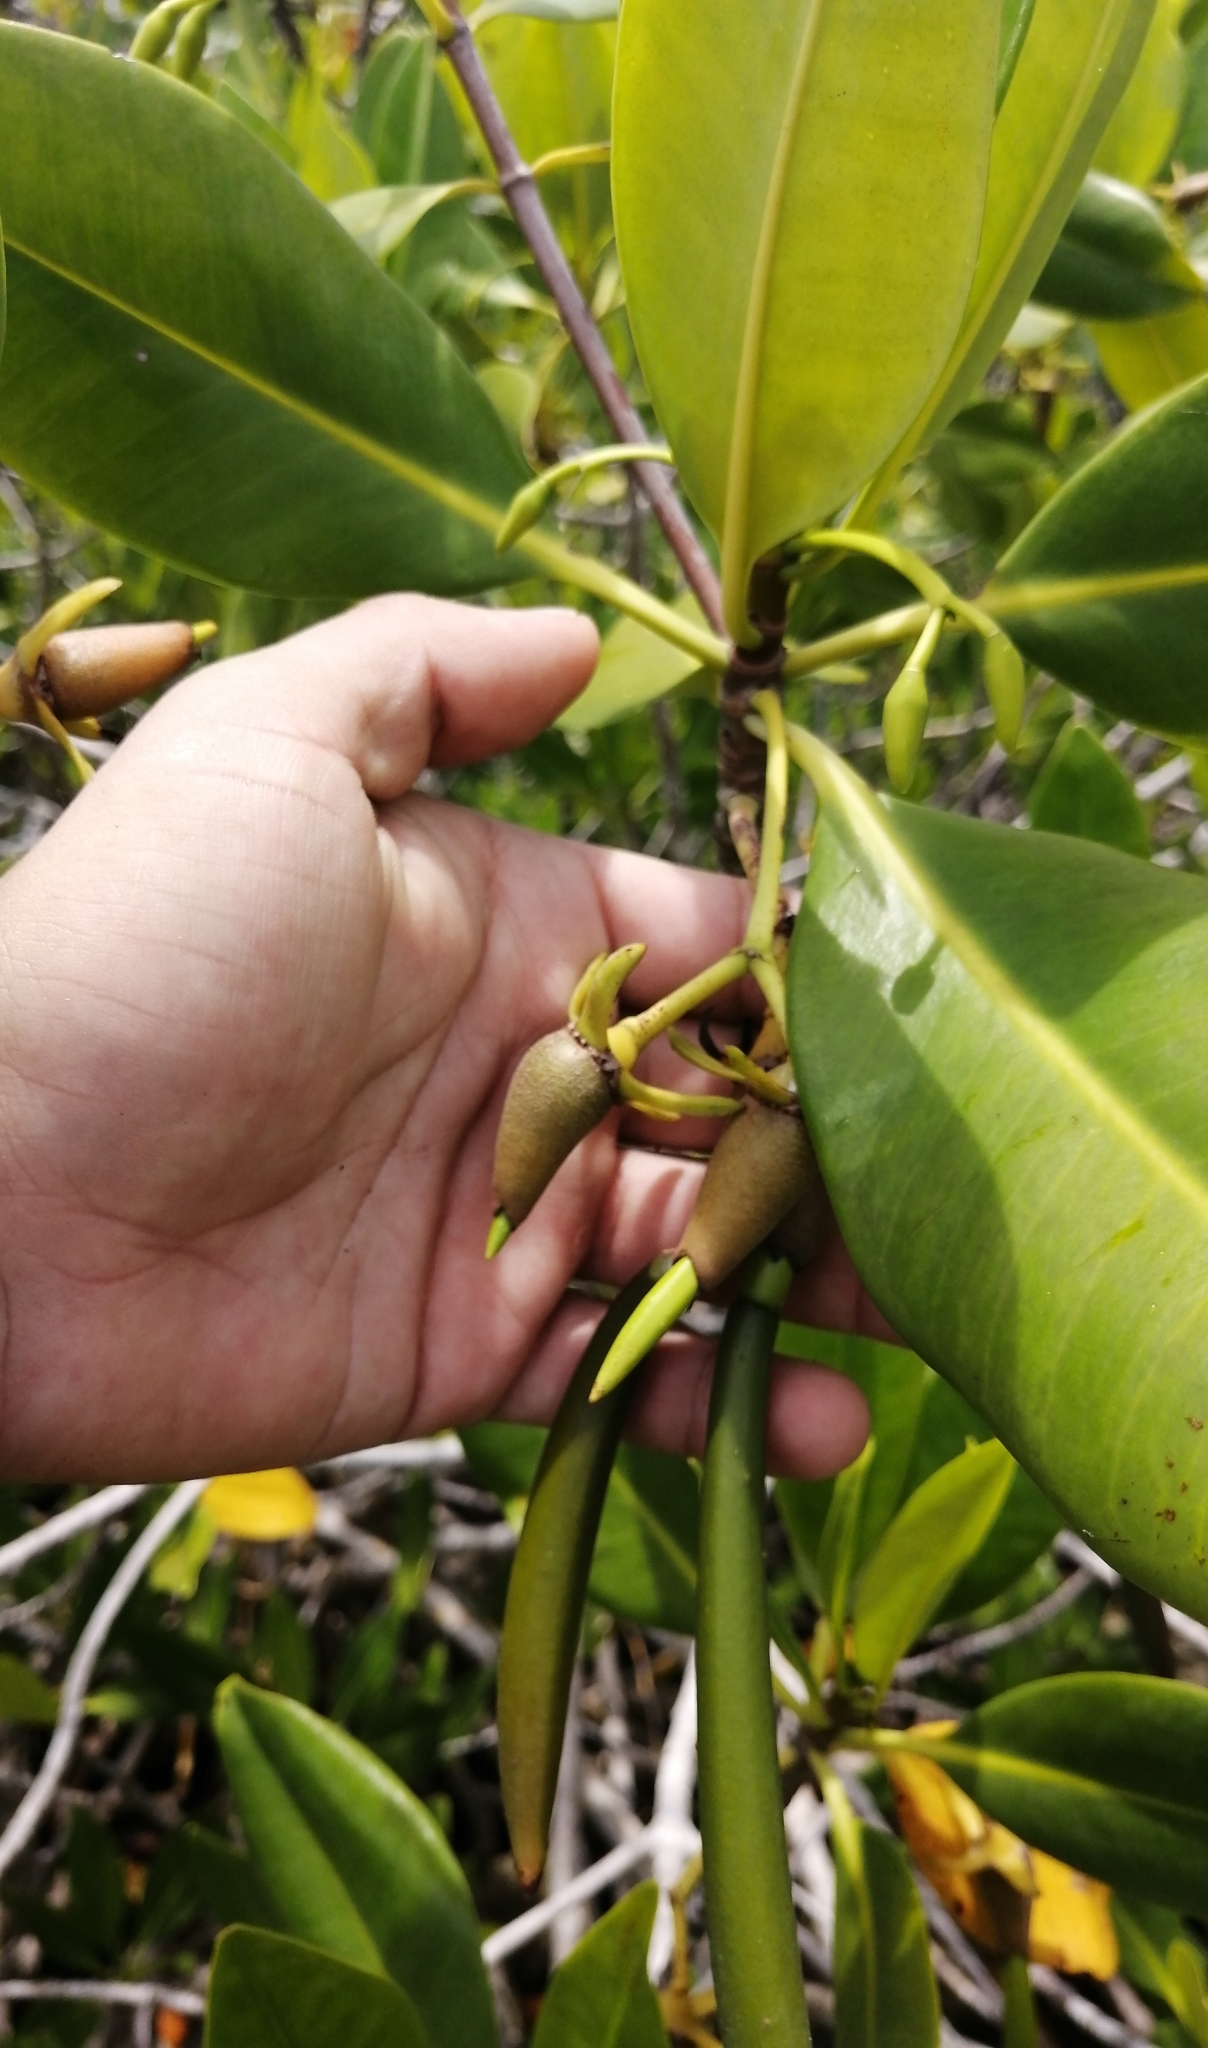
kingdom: Plantae
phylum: Tracheophyta
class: Magnoliopsida
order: Malpighiales
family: Rhizophoraceae
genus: Rhizophora
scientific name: Rhizophora mangle
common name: Red mangrove
